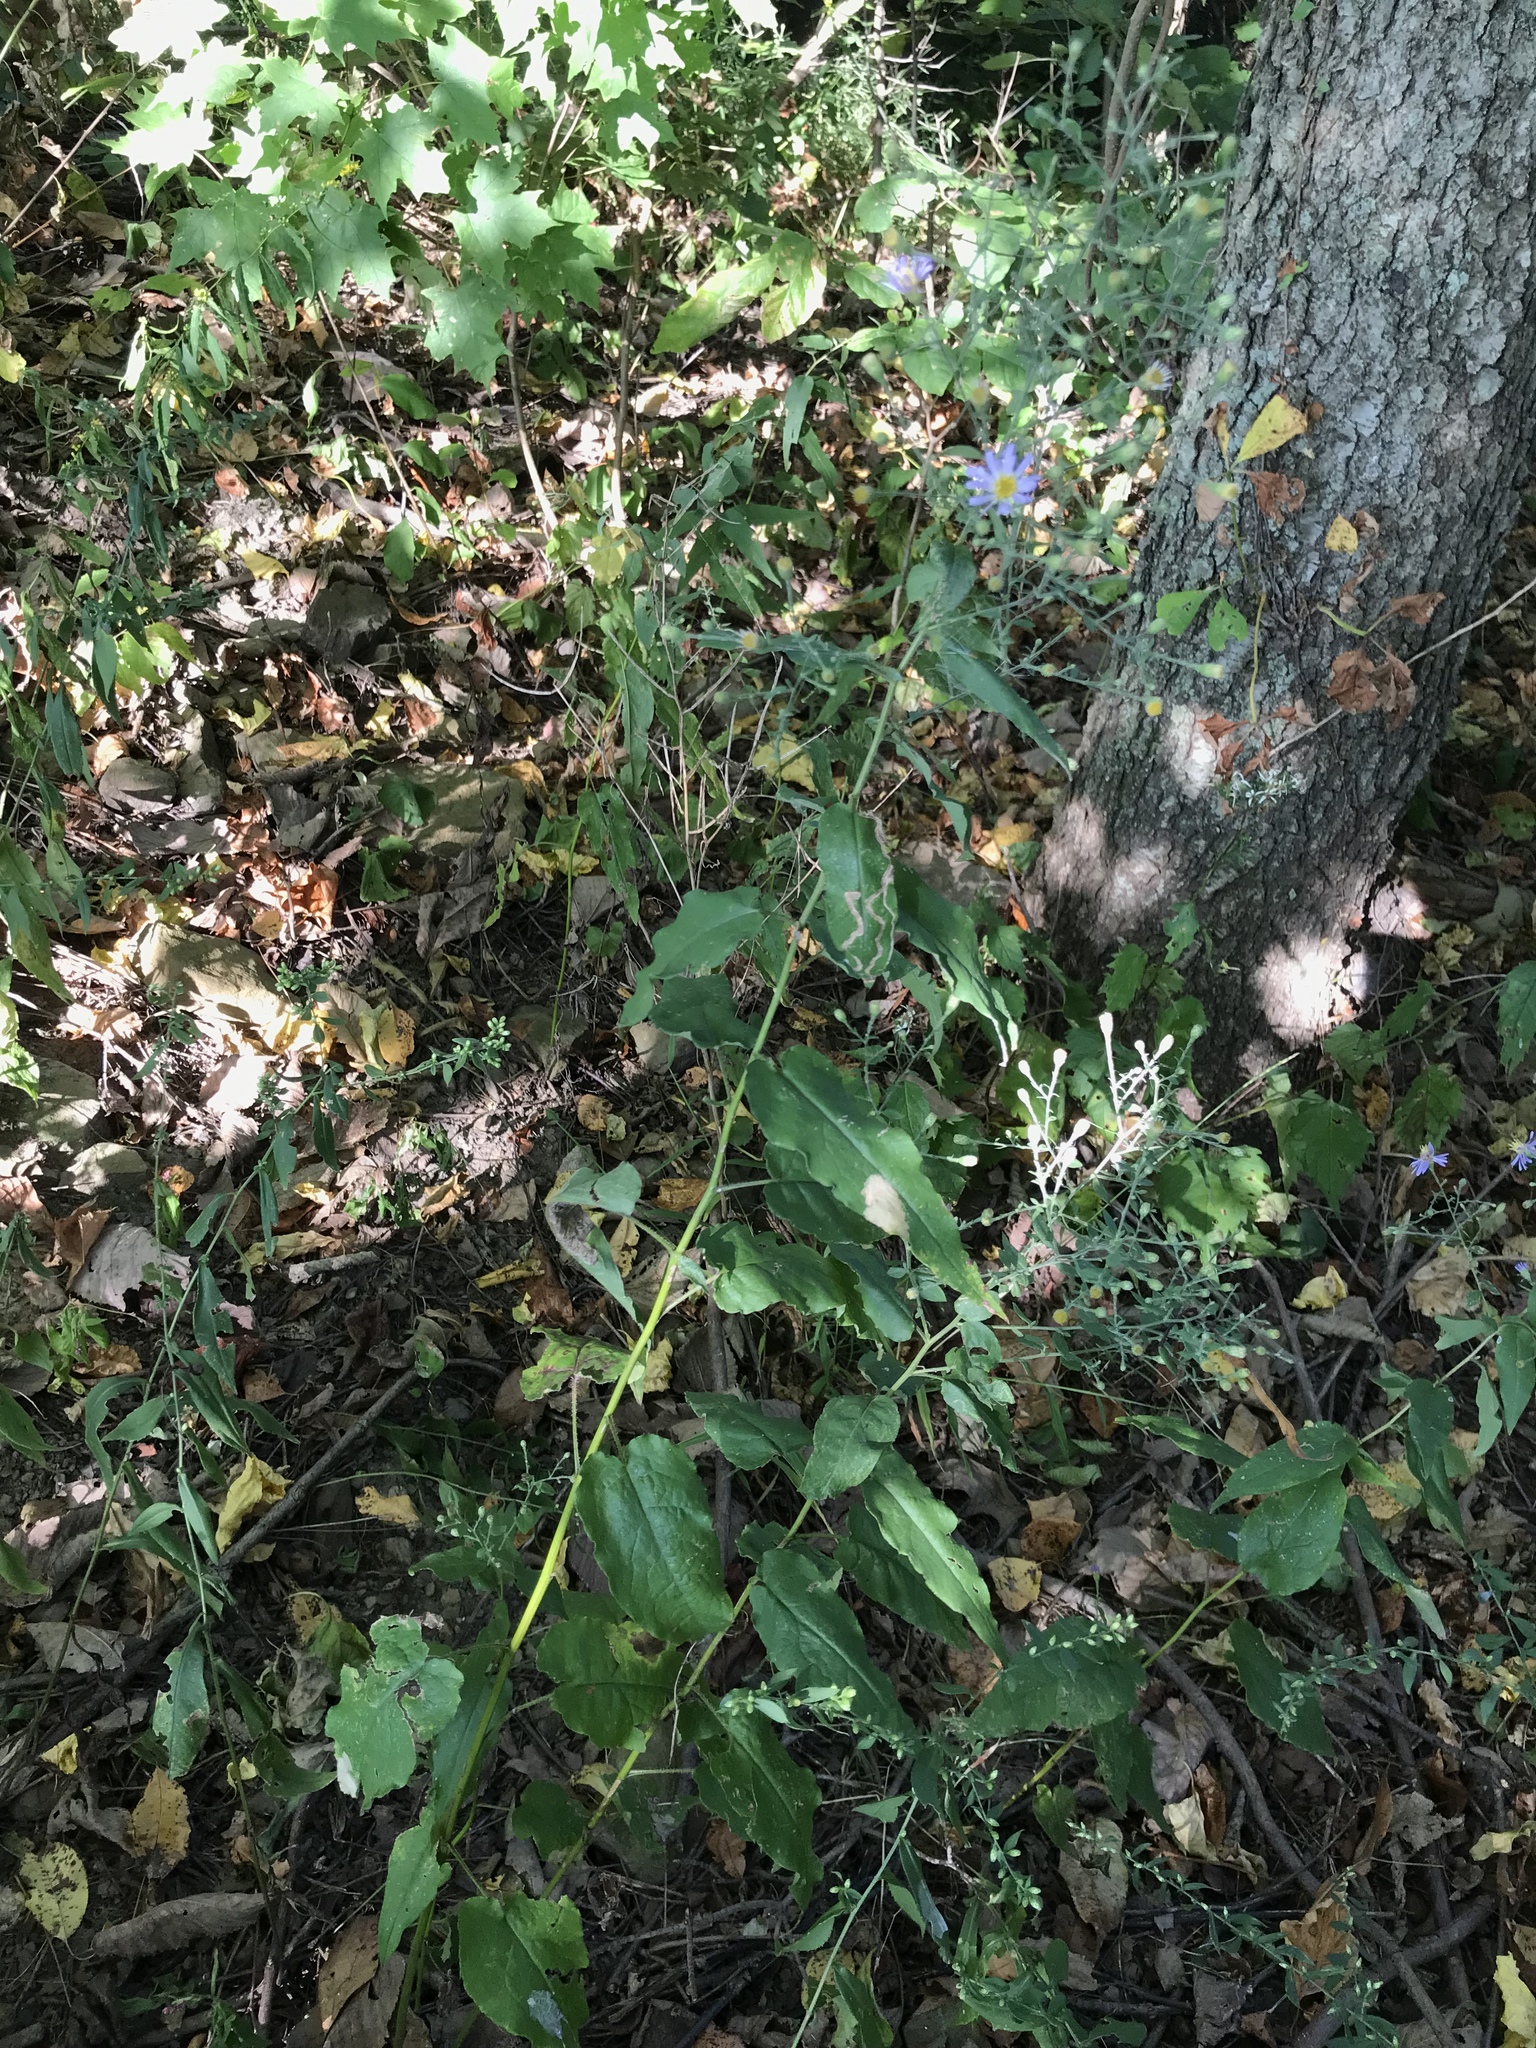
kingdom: Plantae
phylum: Tracheophyta
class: Magnoliopsida
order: Asterales
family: Asteraceae
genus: Symphyotrichum
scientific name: Symphyotrichum shortii
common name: Short's aster
